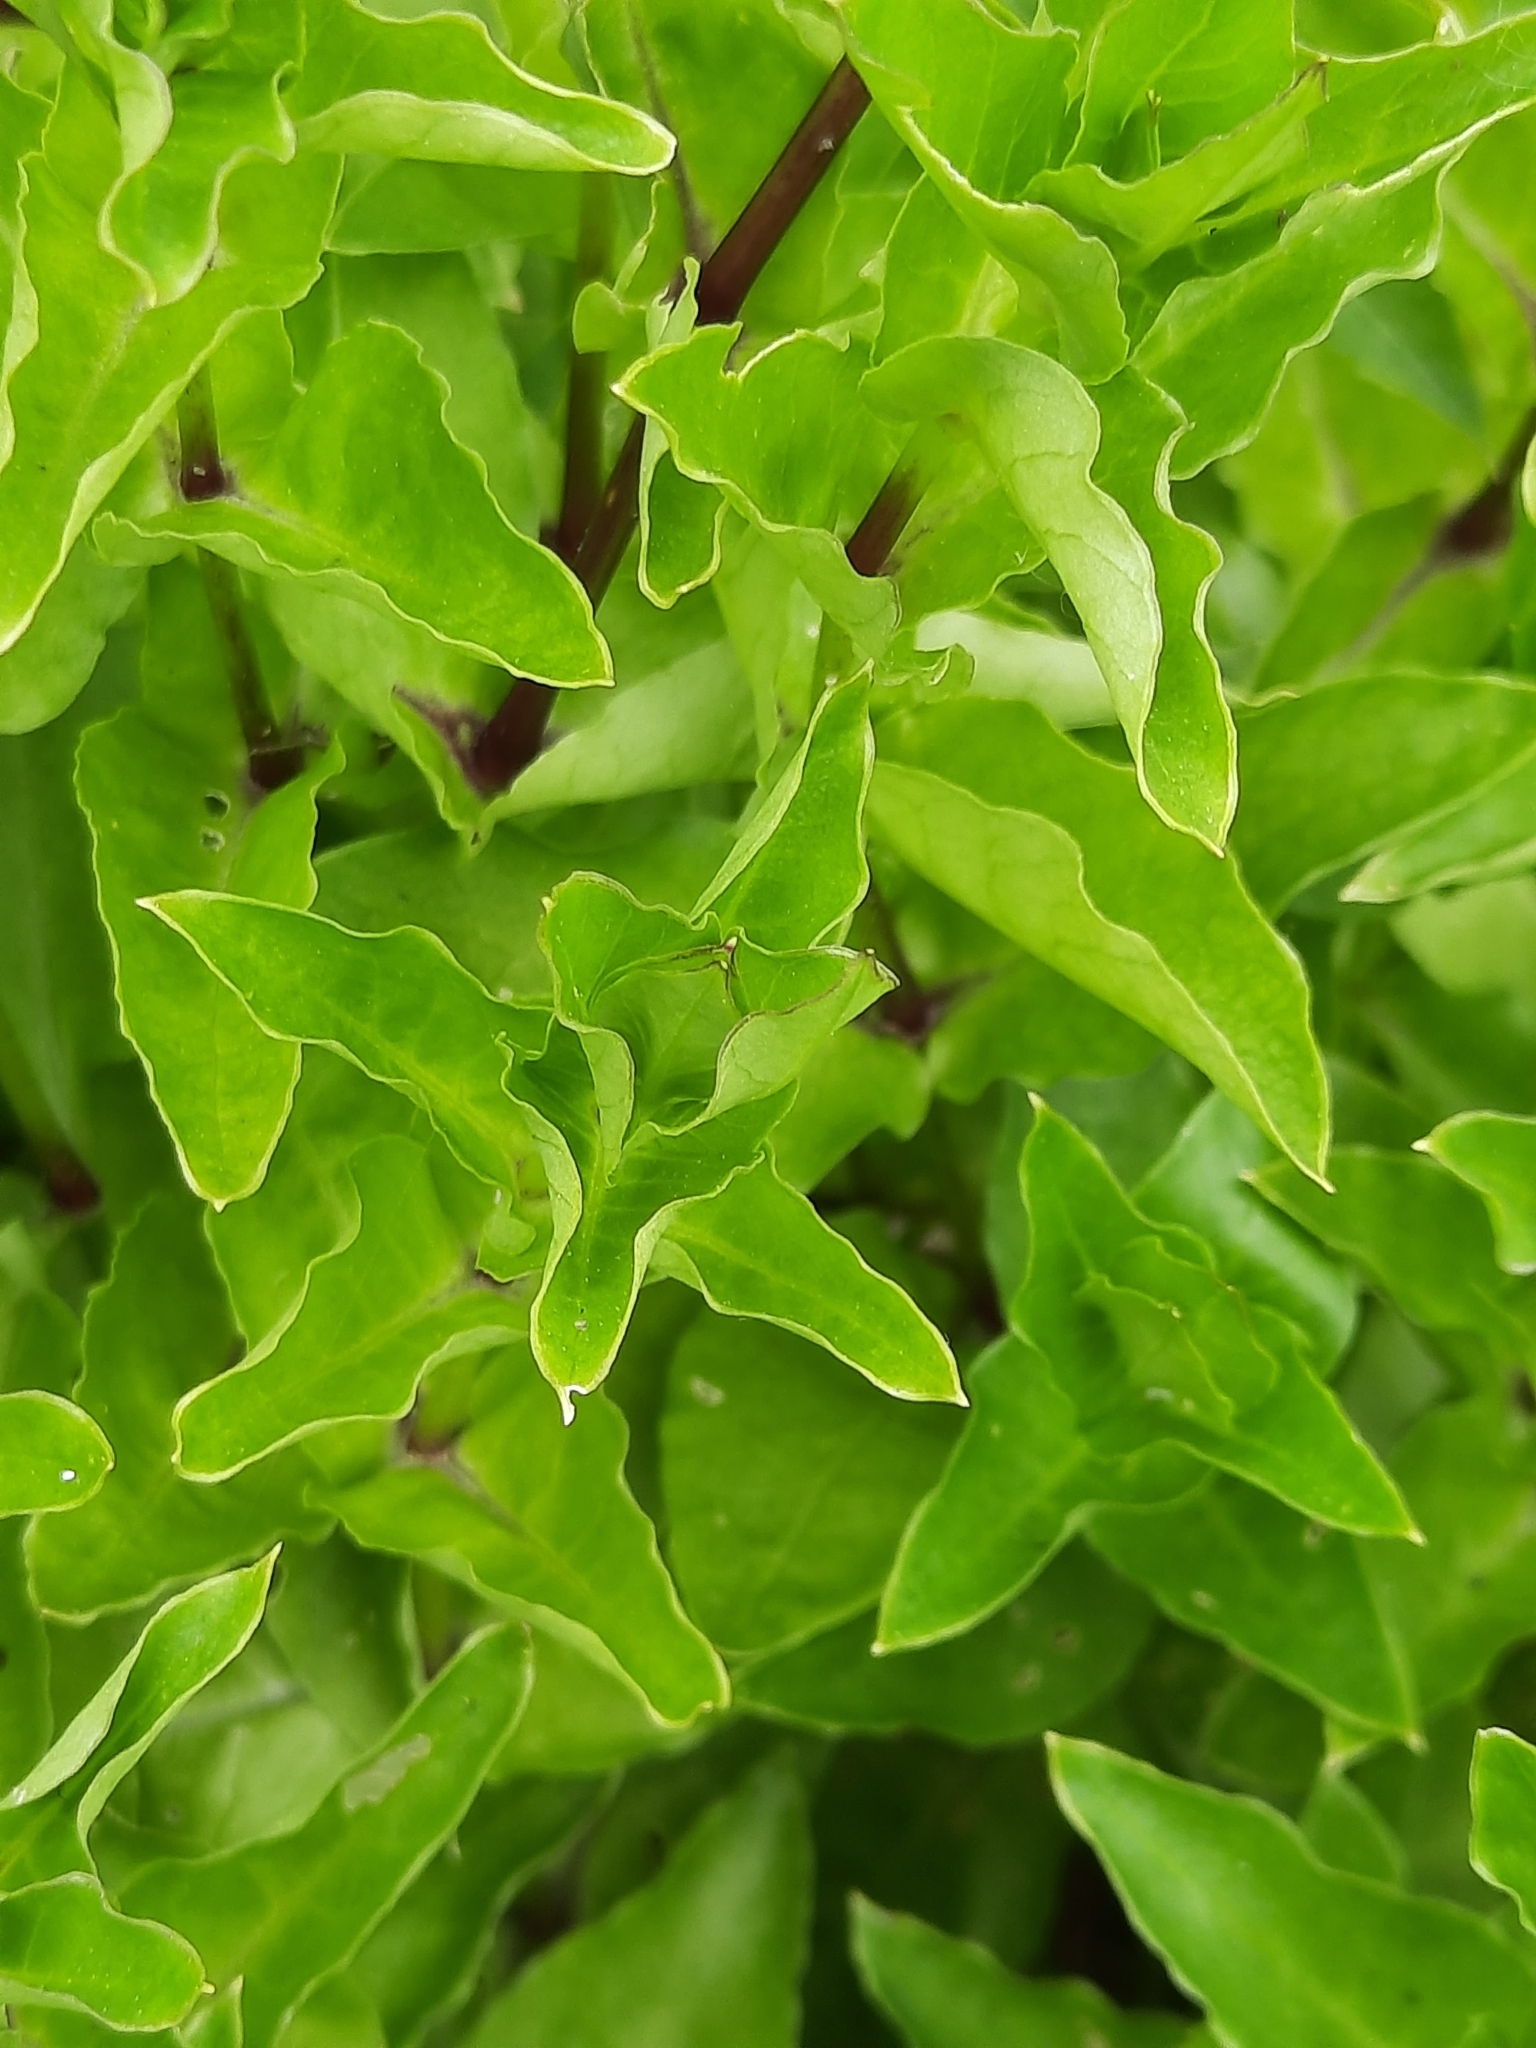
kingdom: Plantae
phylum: Tracheophyta
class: Magnoliopsida
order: Caryophyllales
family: Caryophyllaceae
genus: Stellaria
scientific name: Stellaria aquatica
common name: Water chickweed
